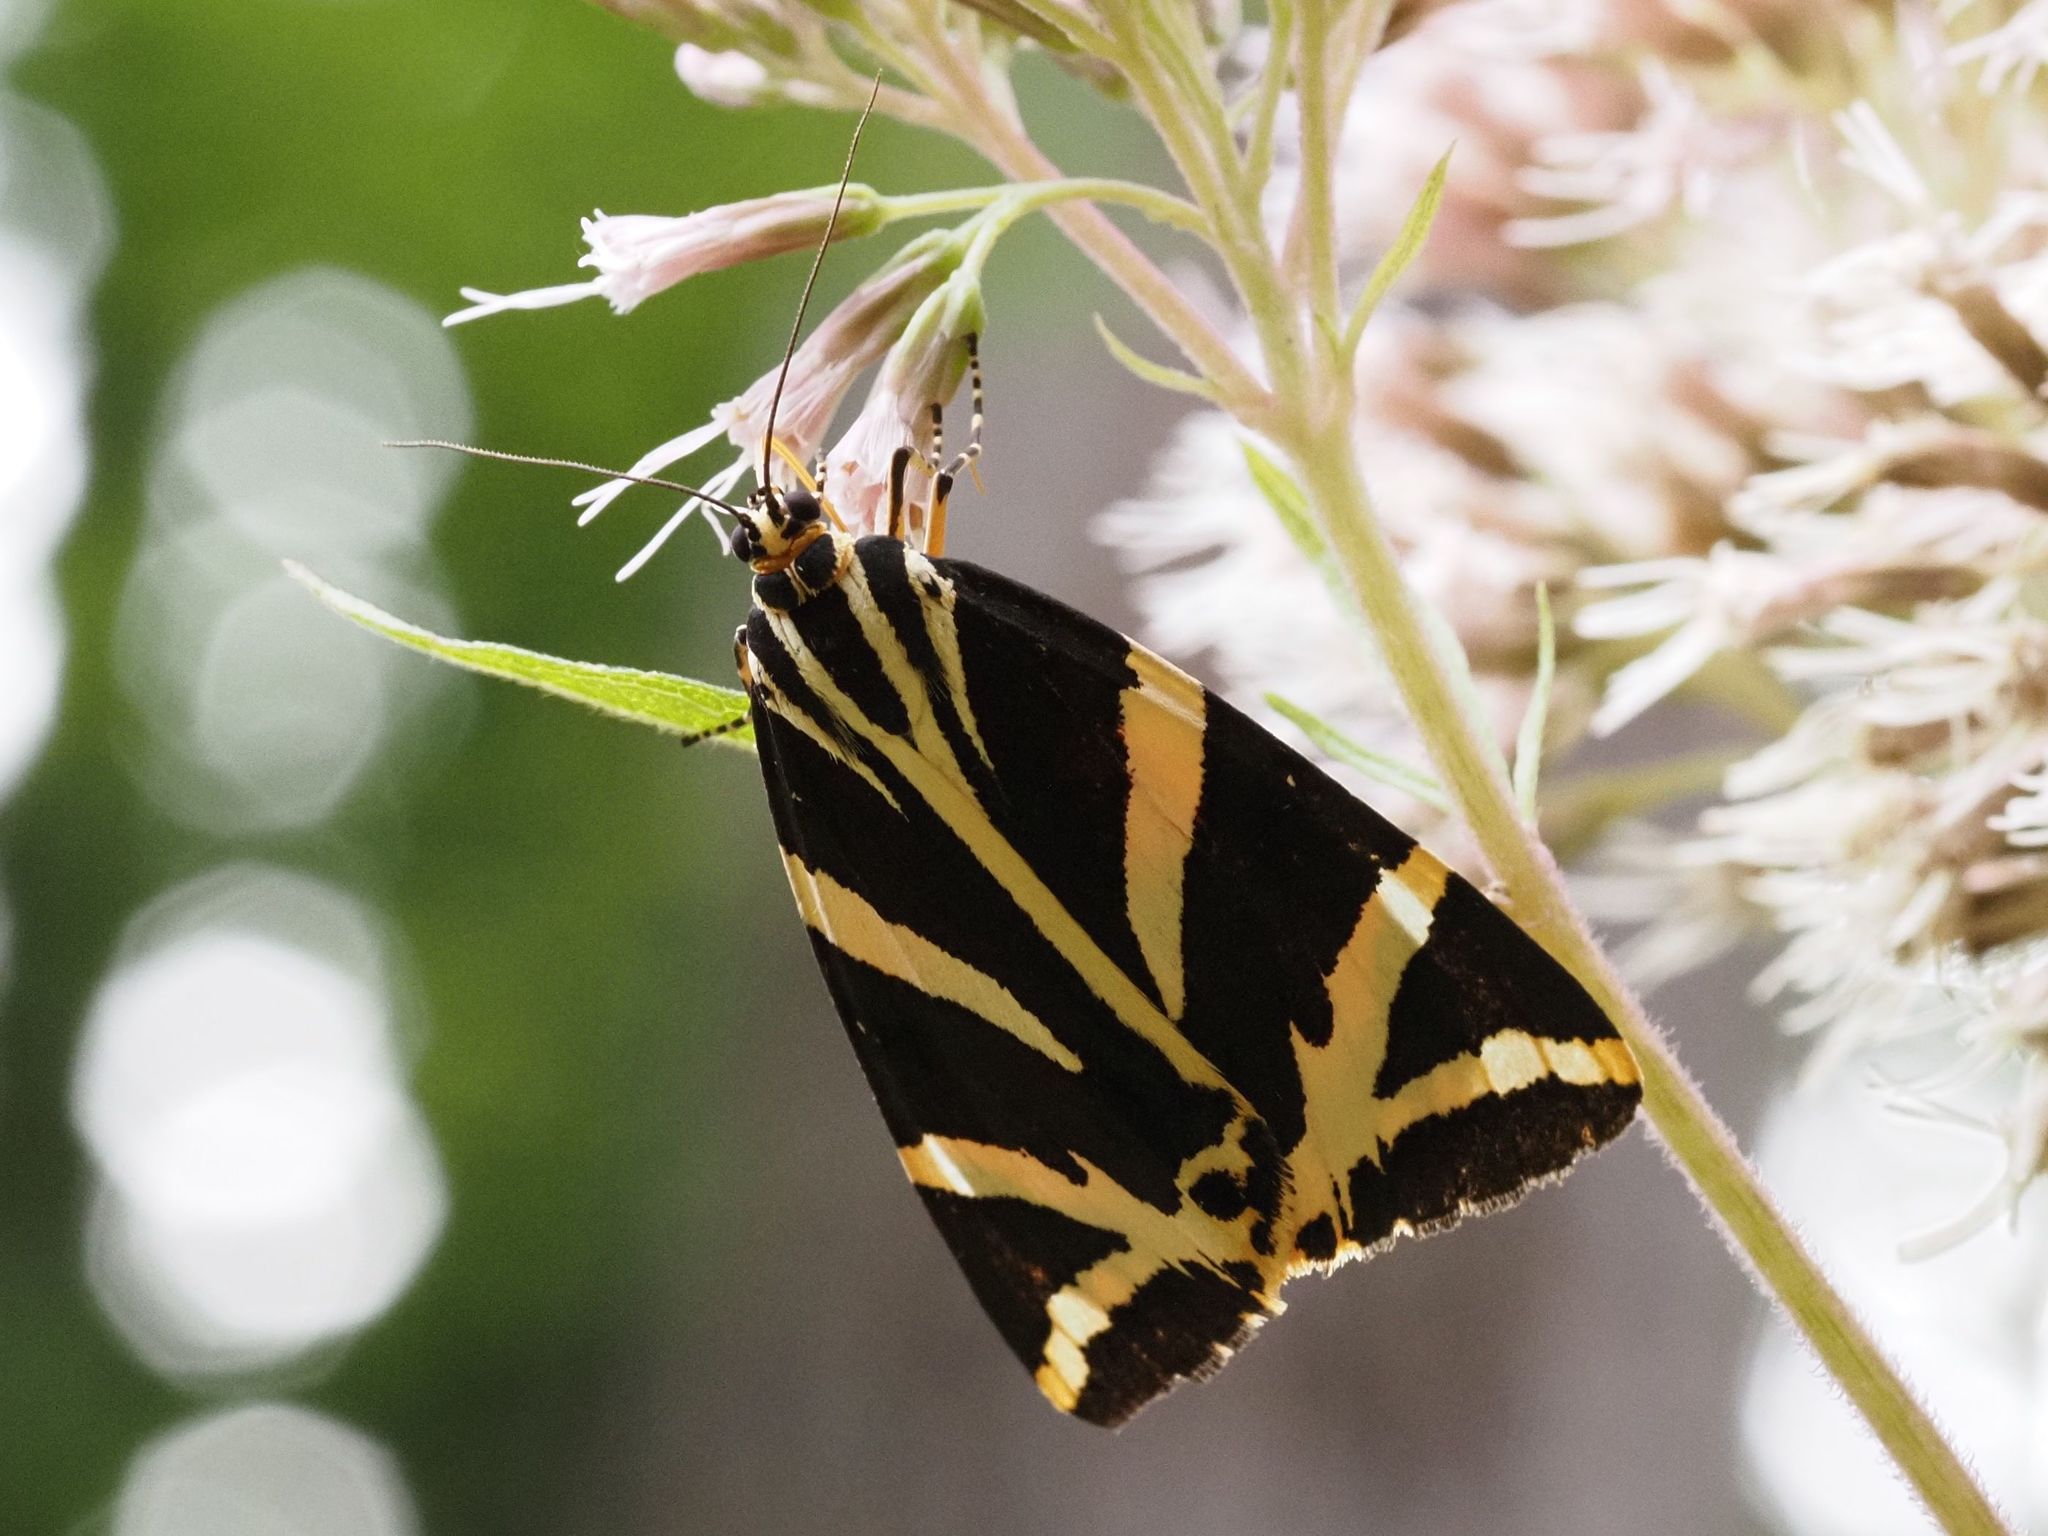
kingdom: Animalia
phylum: Arthropoda
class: Insecta
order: Lepidoptera
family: Erebidae
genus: Euplagia
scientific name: Euplagia quadripunctaria
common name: Jersey tiger
